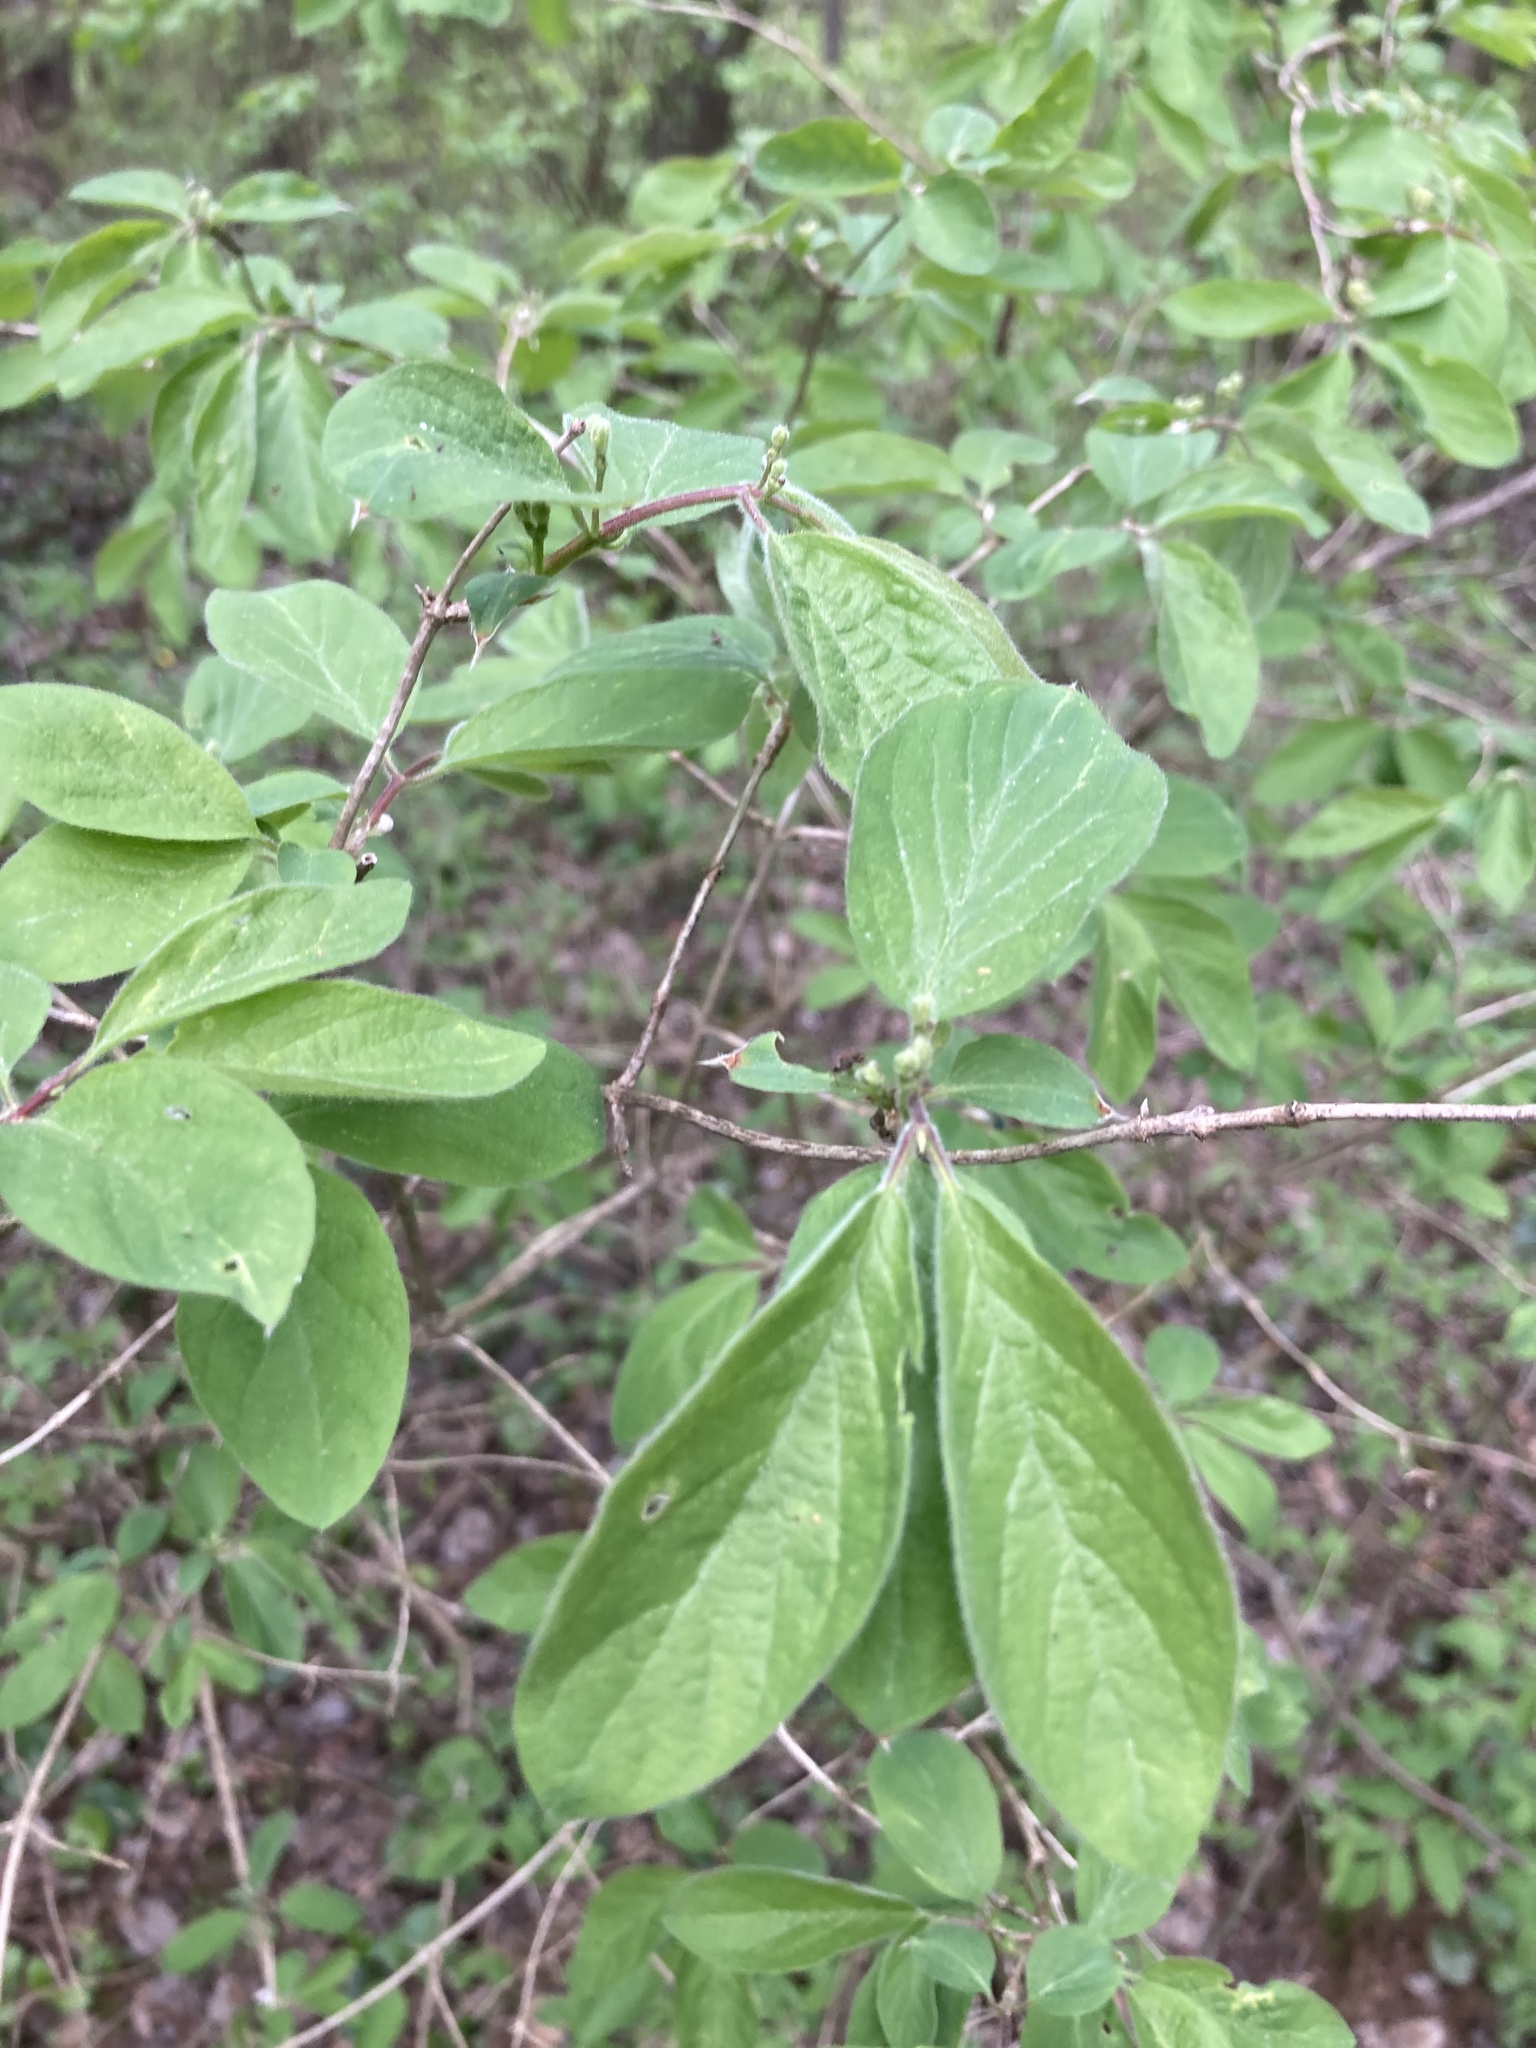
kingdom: Plantae
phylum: Tracheophyta
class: Magnoliopsida
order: Dipsacales
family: Caprifoliaceae
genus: Lonicera
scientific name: Lonicera xylosteum
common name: Fly honeysuckle
